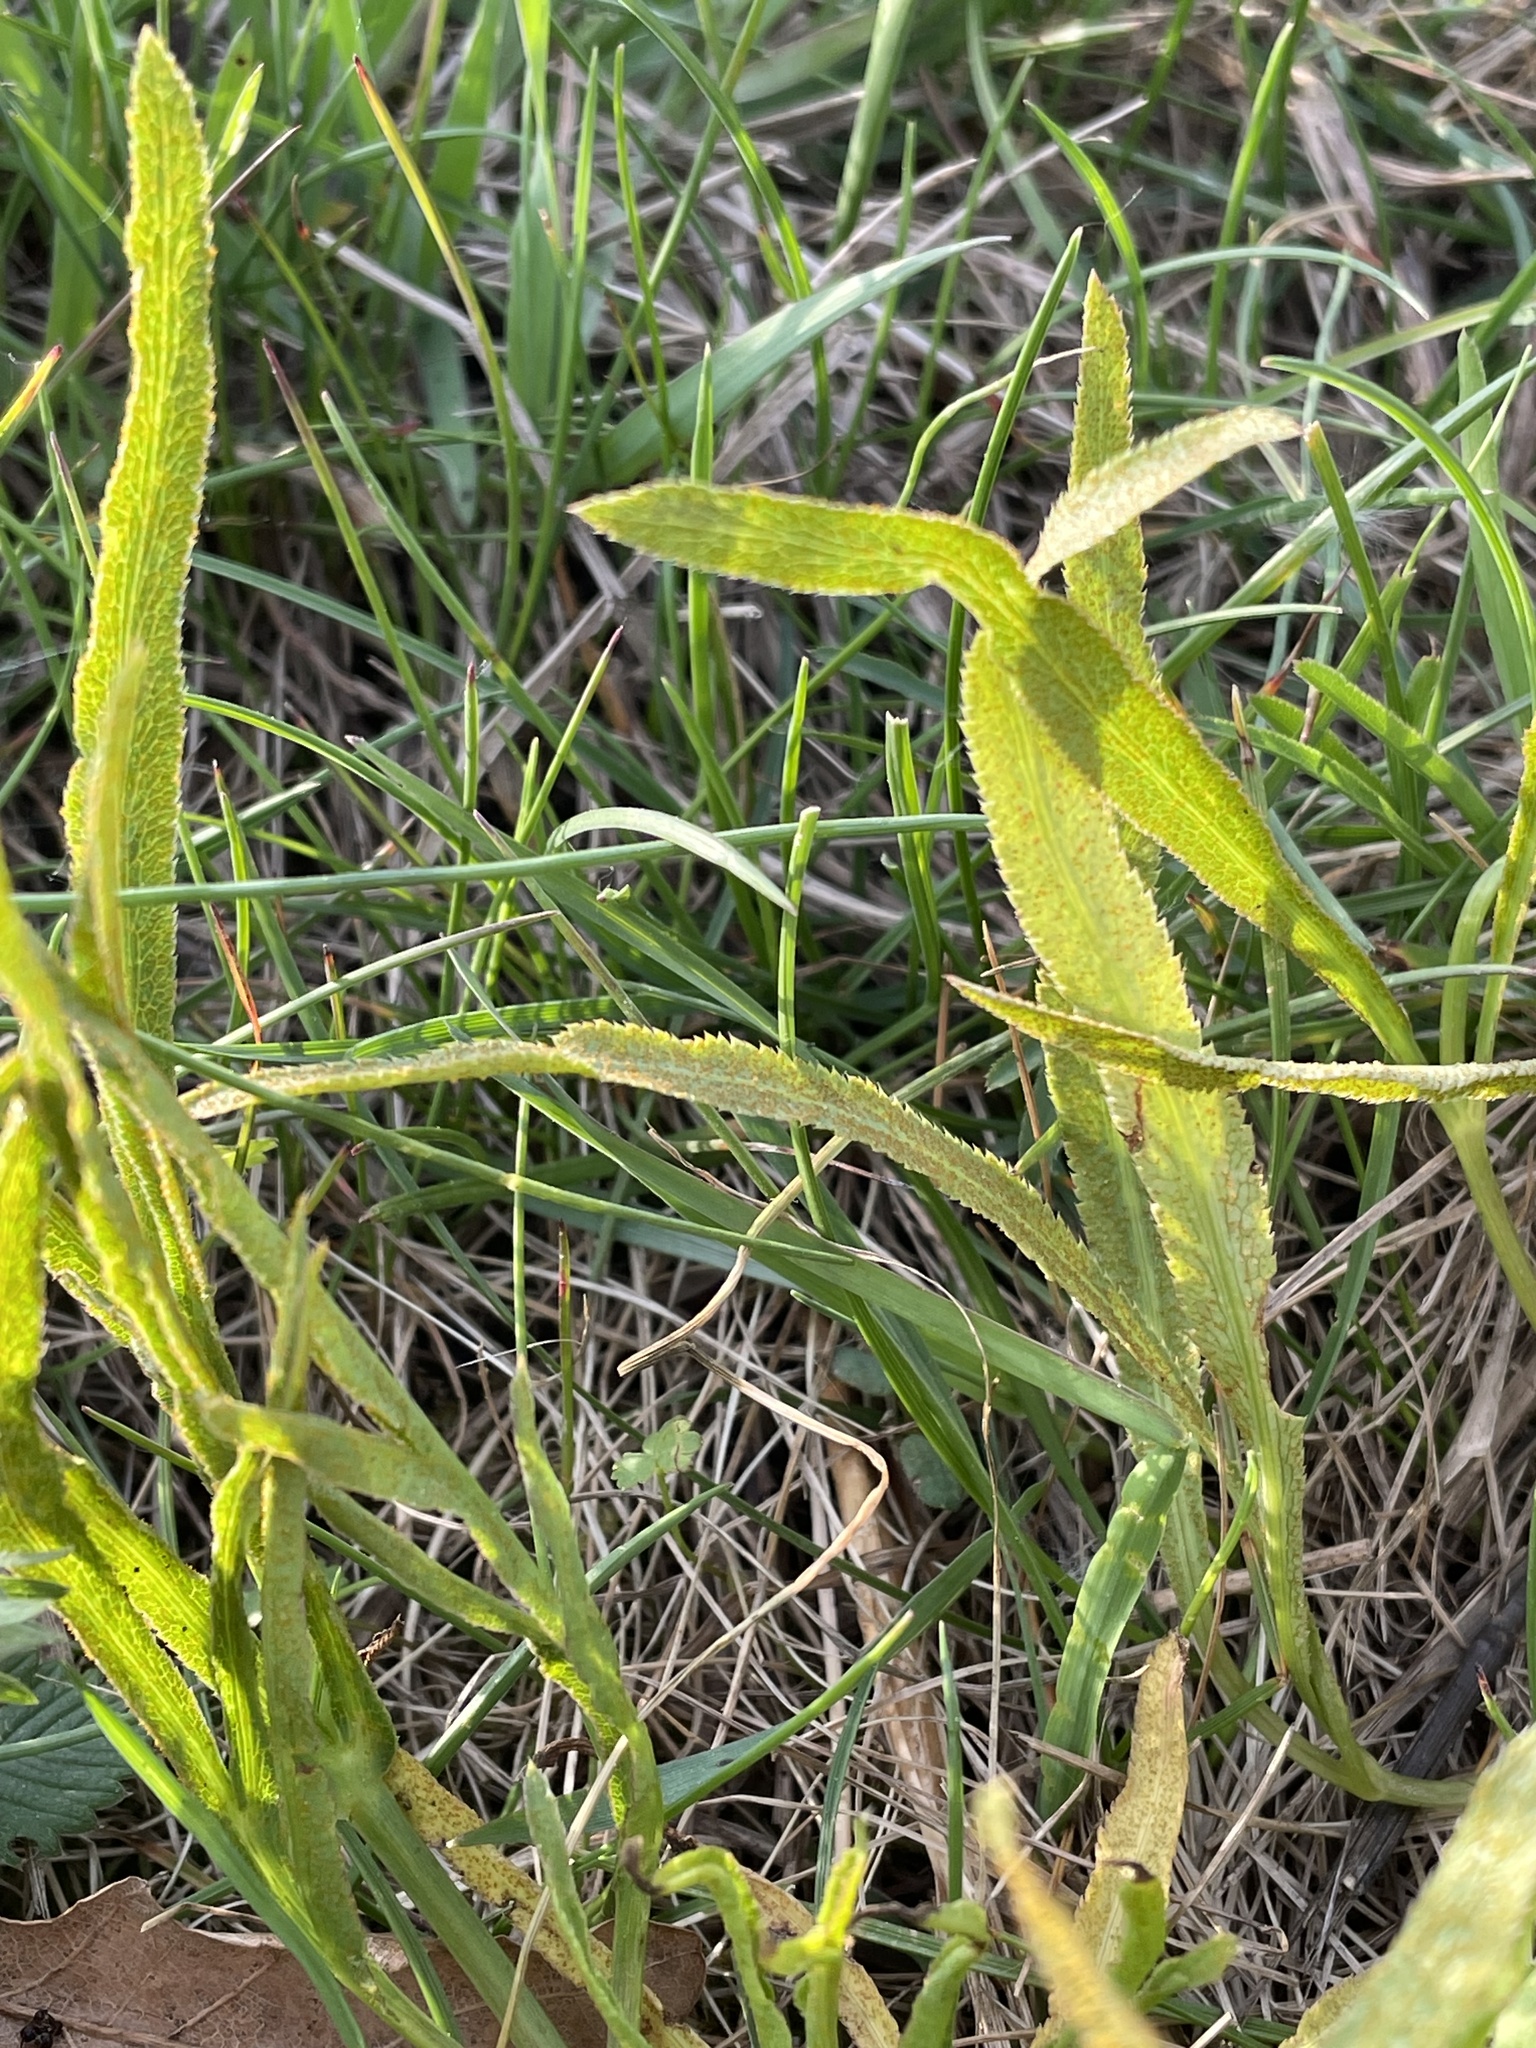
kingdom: Plantae
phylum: Tracheophyta
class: Magnoliopsida
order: Apiales
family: Apiaceae
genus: Falcaria
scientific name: Falcaria vulgaris
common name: Longleaf
